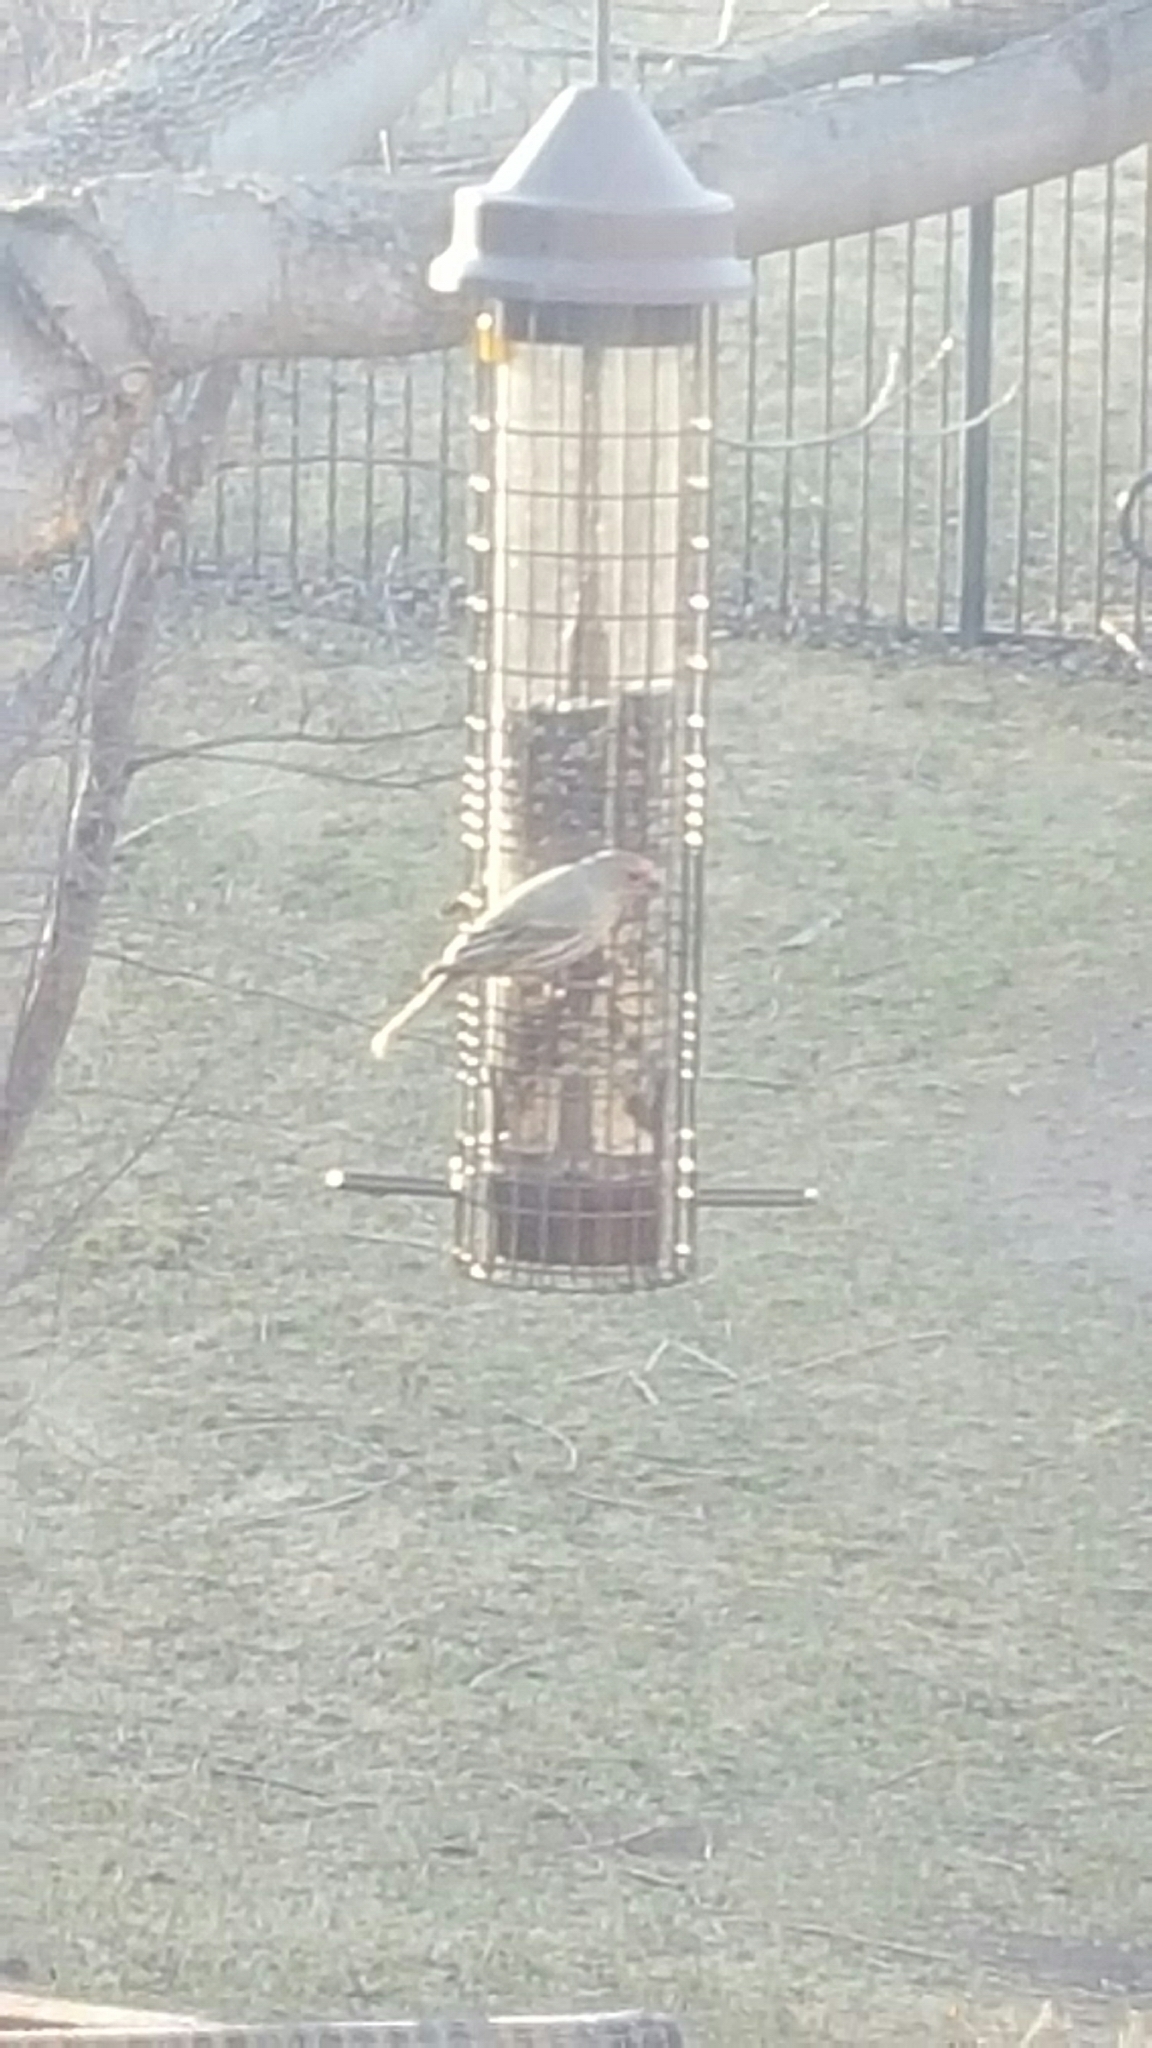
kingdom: Animalia
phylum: Chordata
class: Aves
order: Passeriformes
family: Fringillidae
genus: Haemorhous
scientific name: Haemorhous mexicanus
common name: House finch
